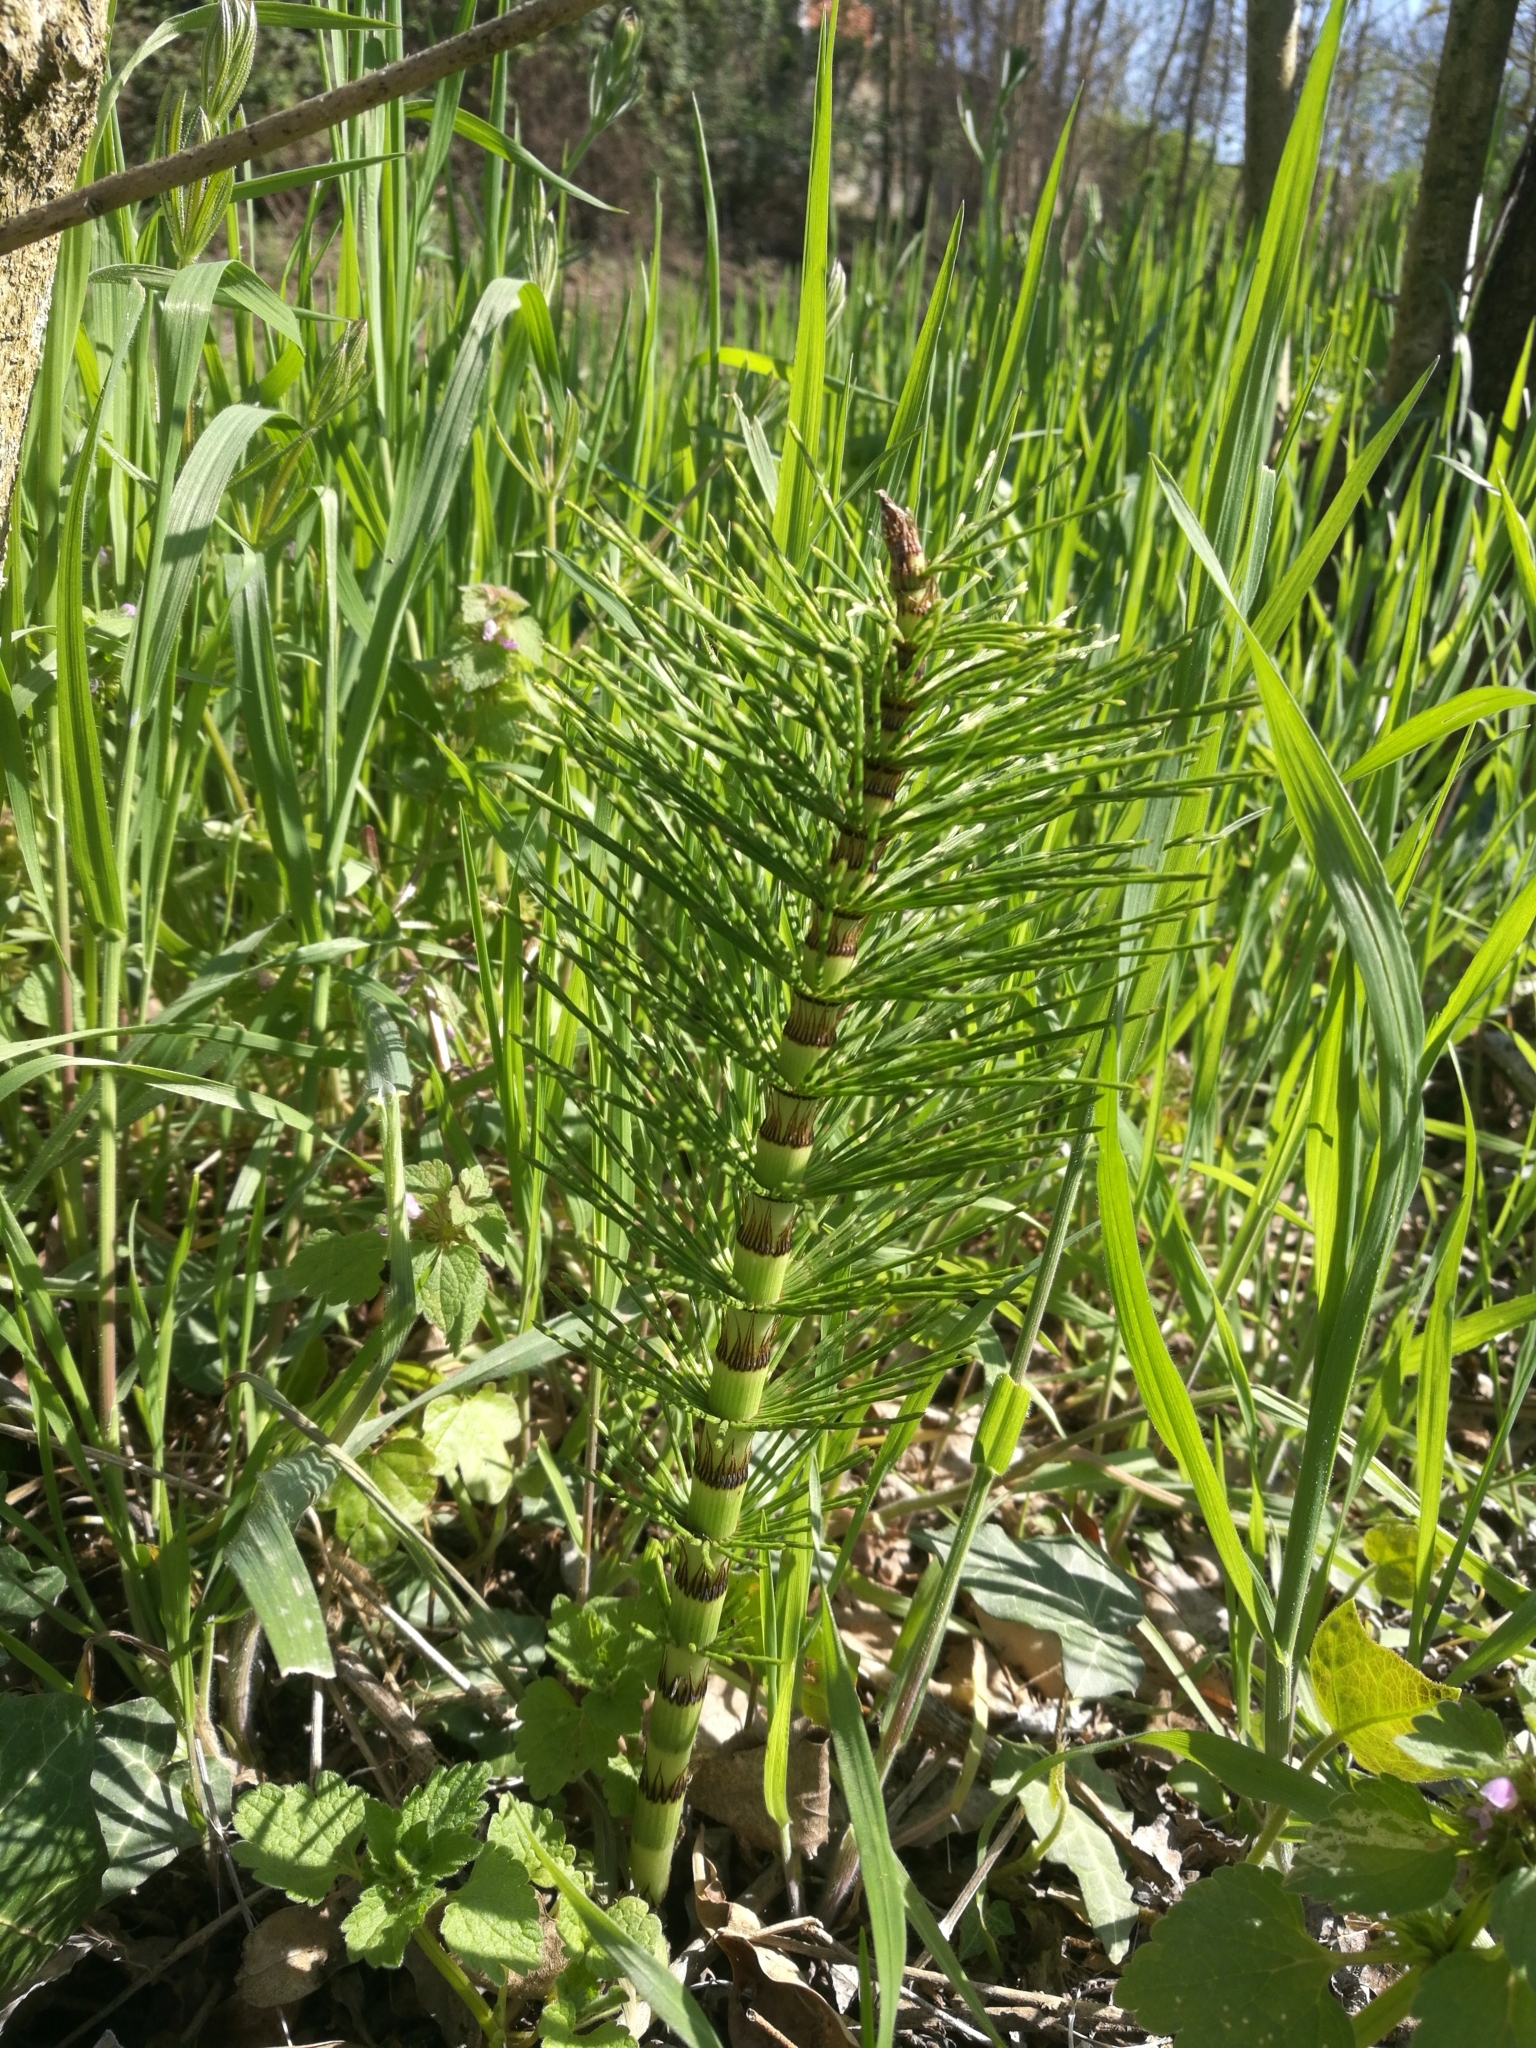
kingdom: Plantae
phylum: Tracheophyta
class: Polypodiopsida
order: Equisetales
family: Equisetaceae
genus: Equisetum
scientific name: Equisetum telmateia
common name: Great horsetail
